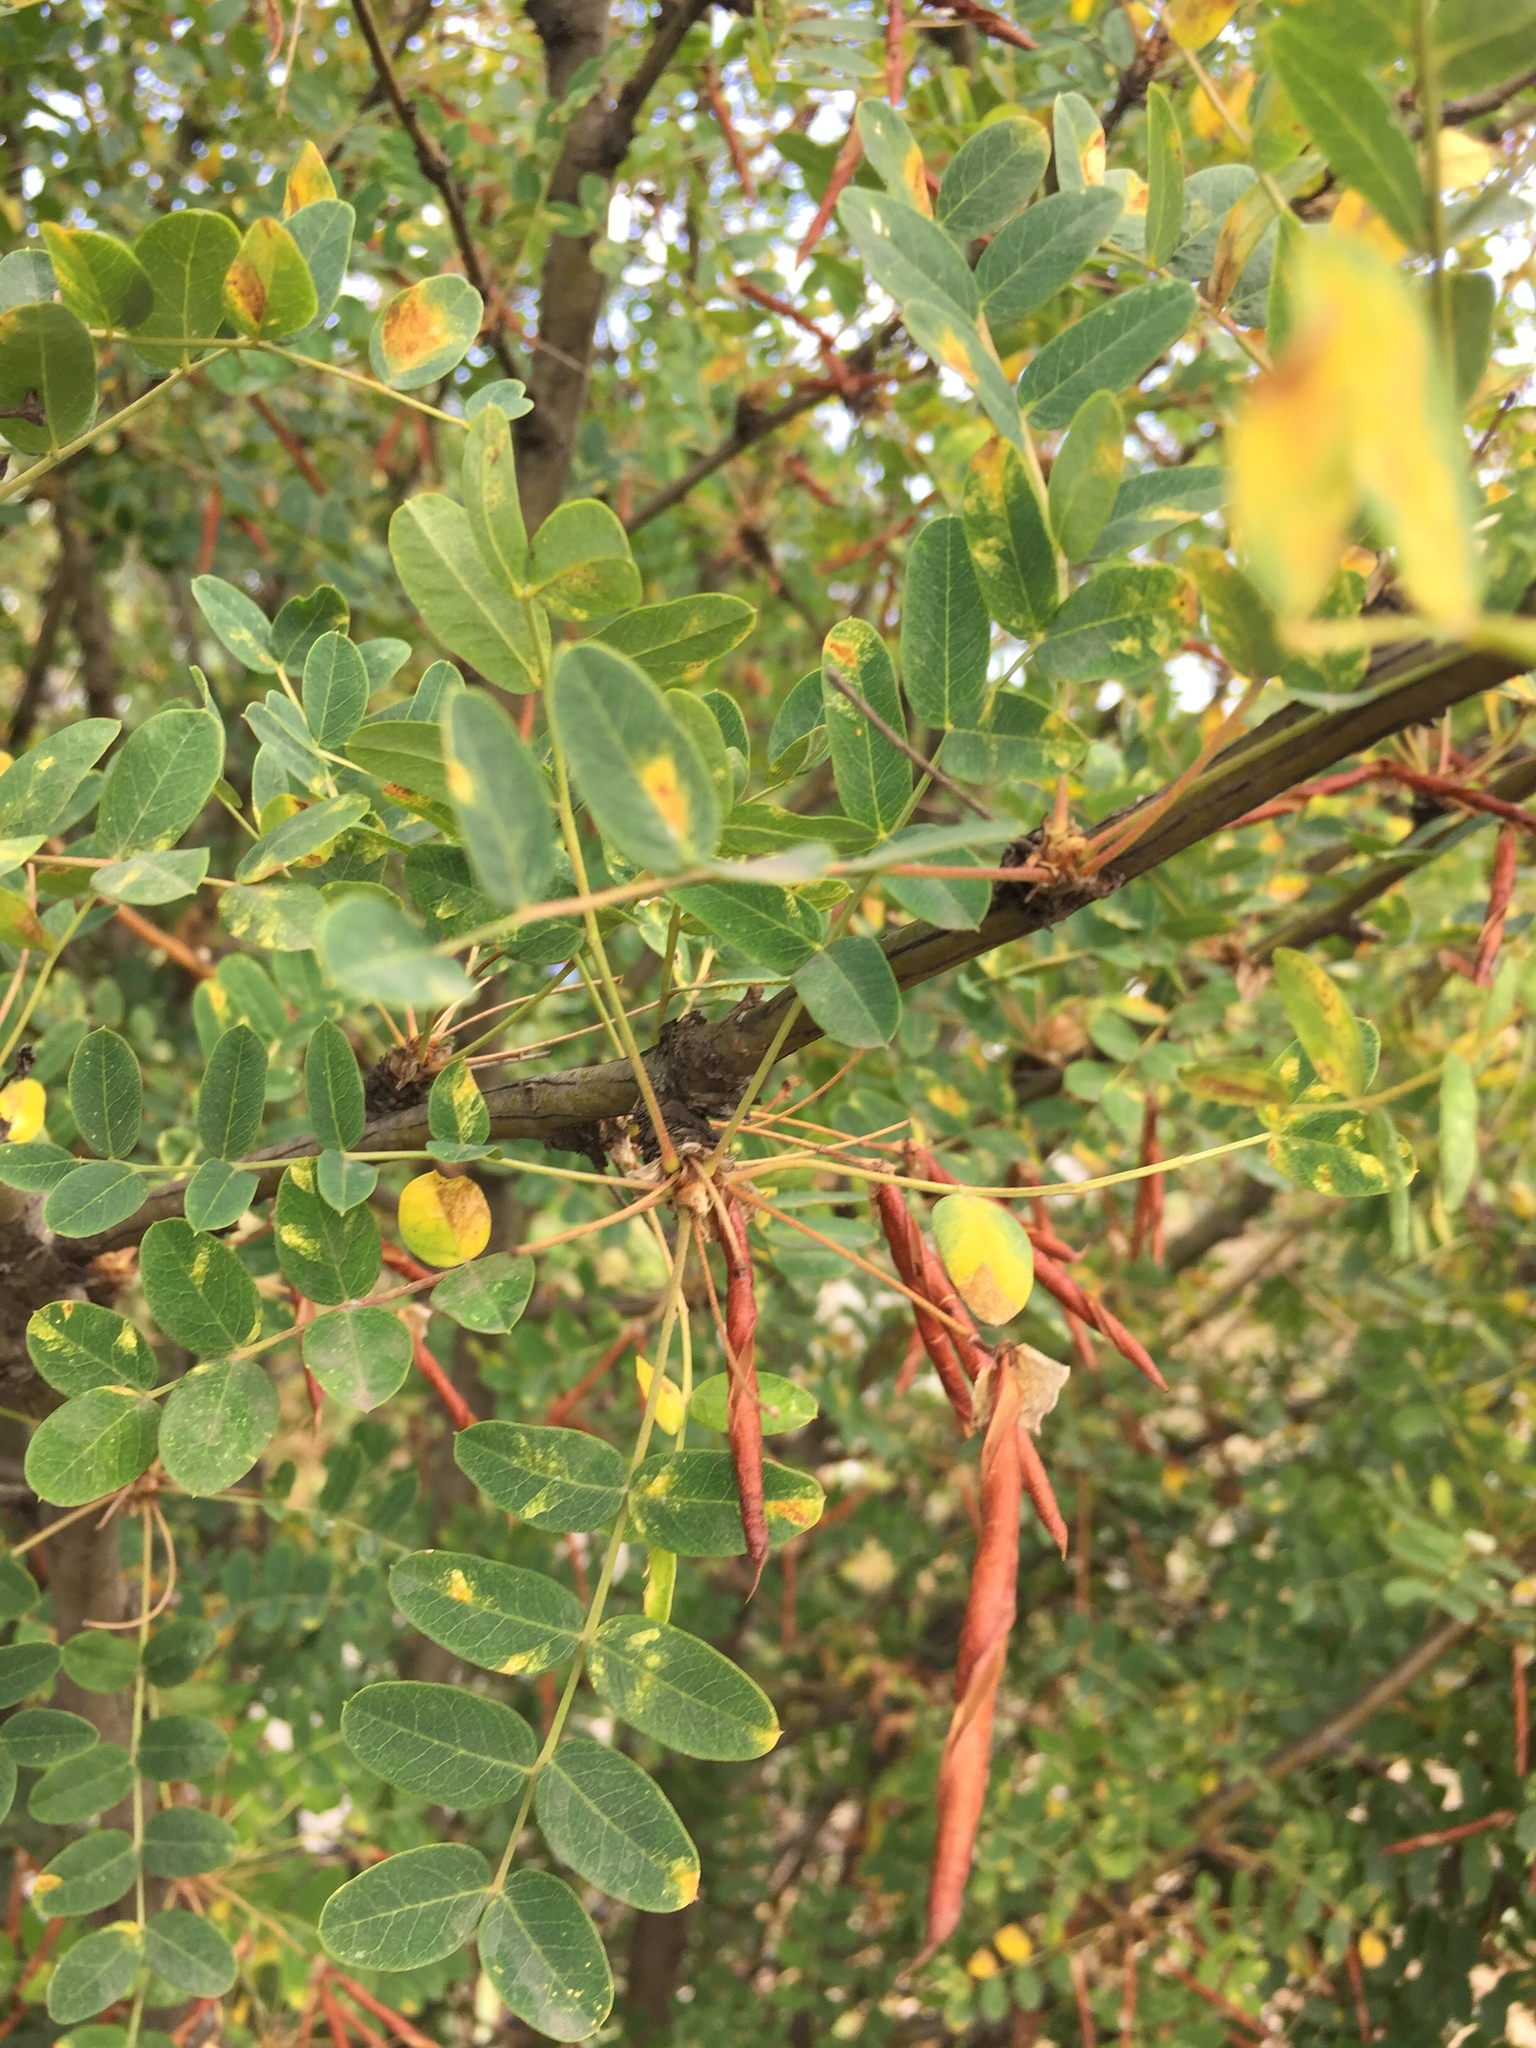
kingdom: Plantae
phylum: Tracheophyta
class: Magnoliopsida
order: Fabales
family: Fabaceae
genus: Caragana
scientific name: Caragana arborescens
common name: Siberian peashrub
